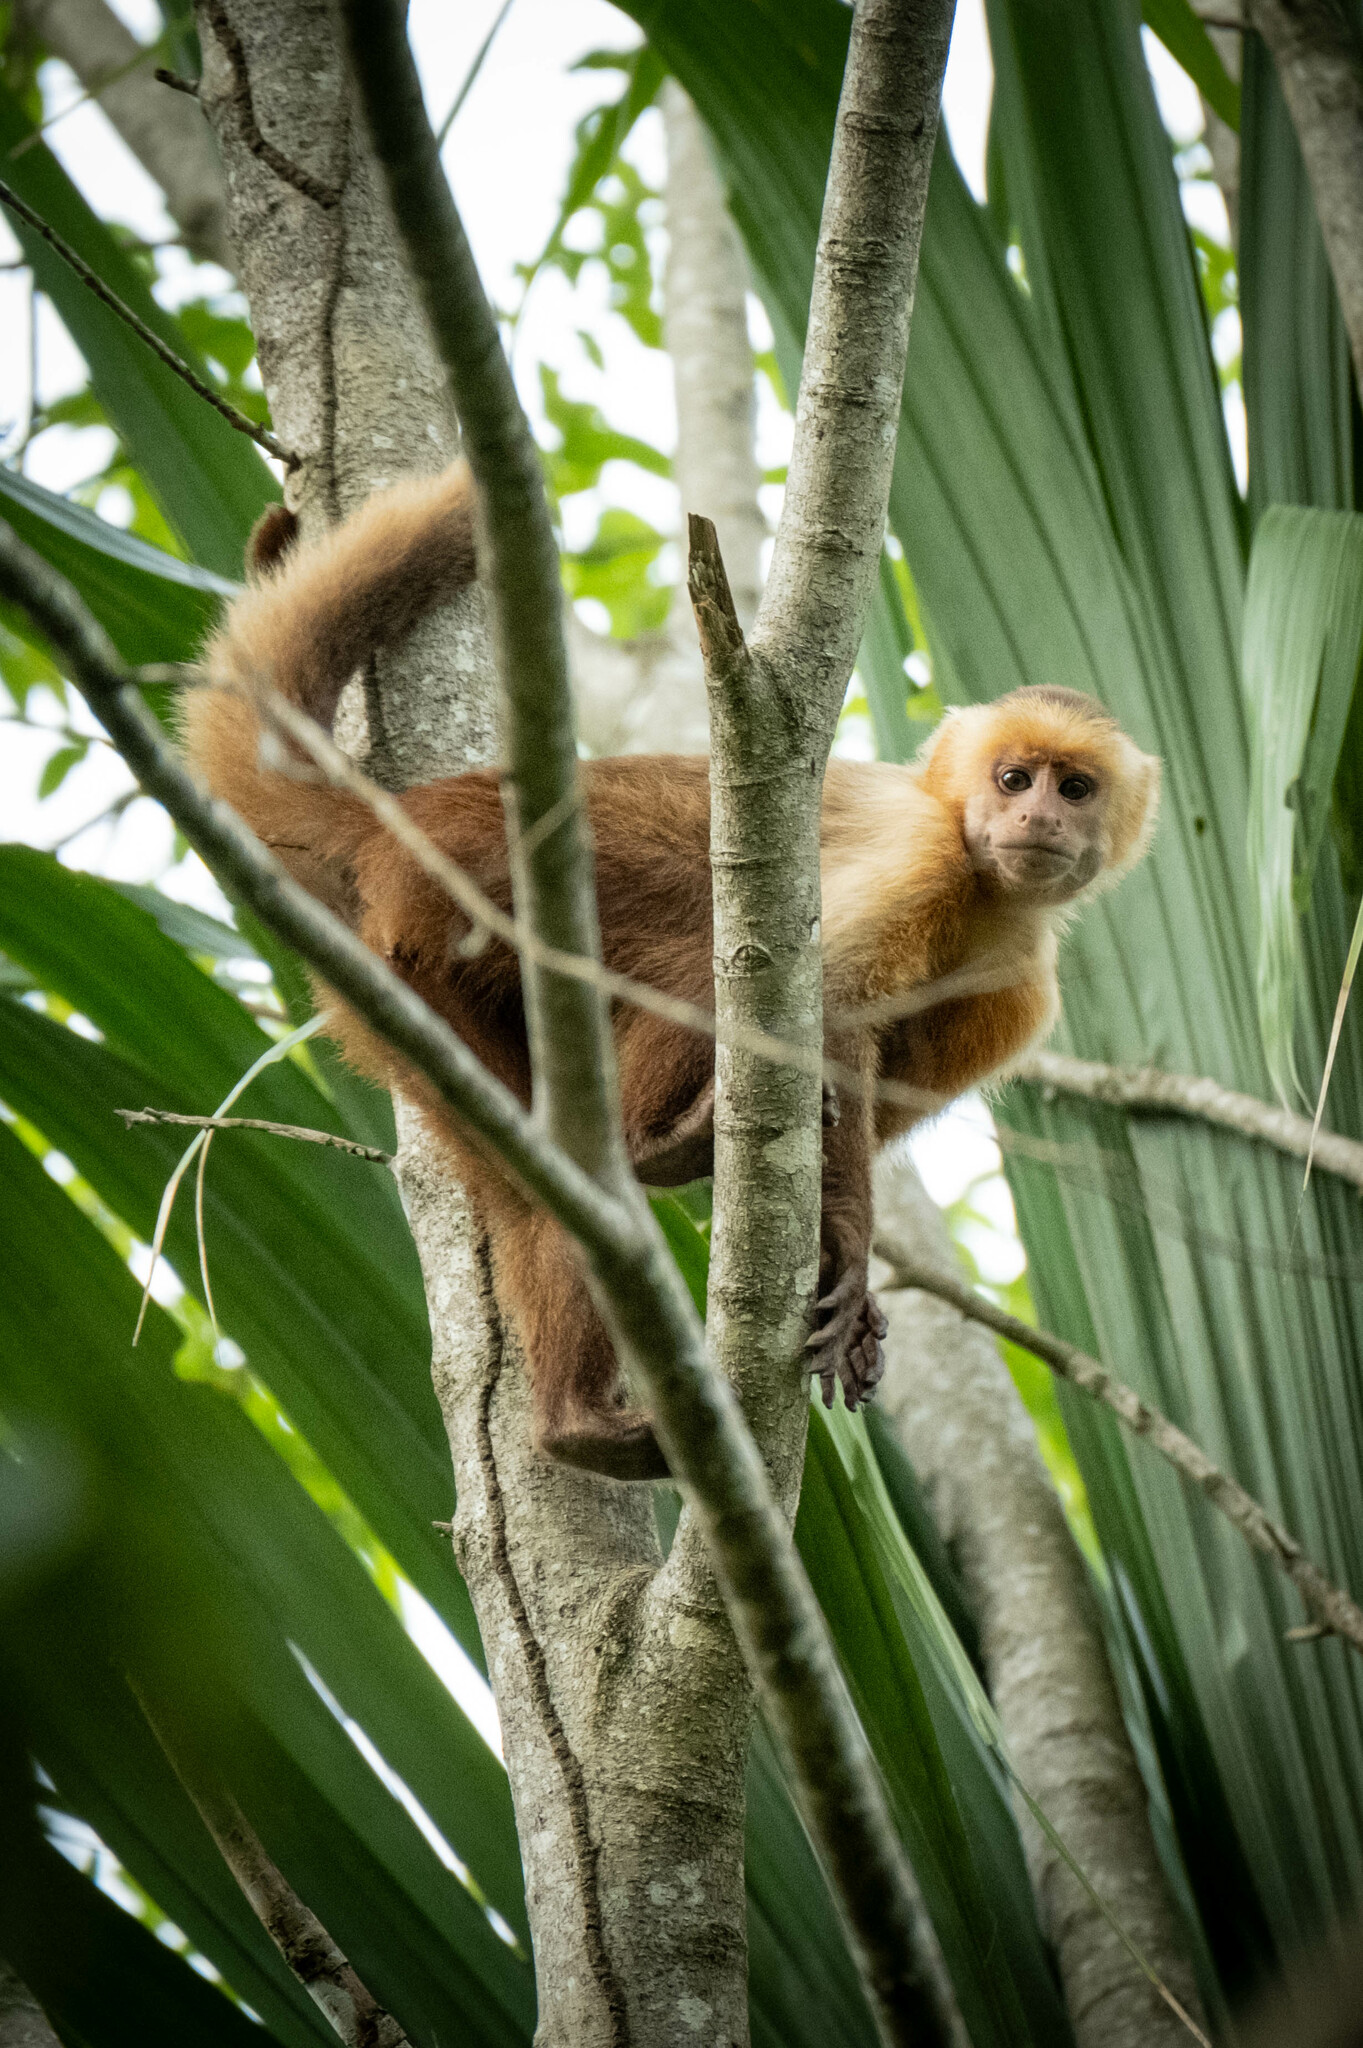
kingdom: Animalia
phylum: Chordata
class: Mammalia
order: Primates
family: Cebidae
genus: Cebus
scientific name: Cebus malitiosus
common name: Santa marta white-fronted capuchin
